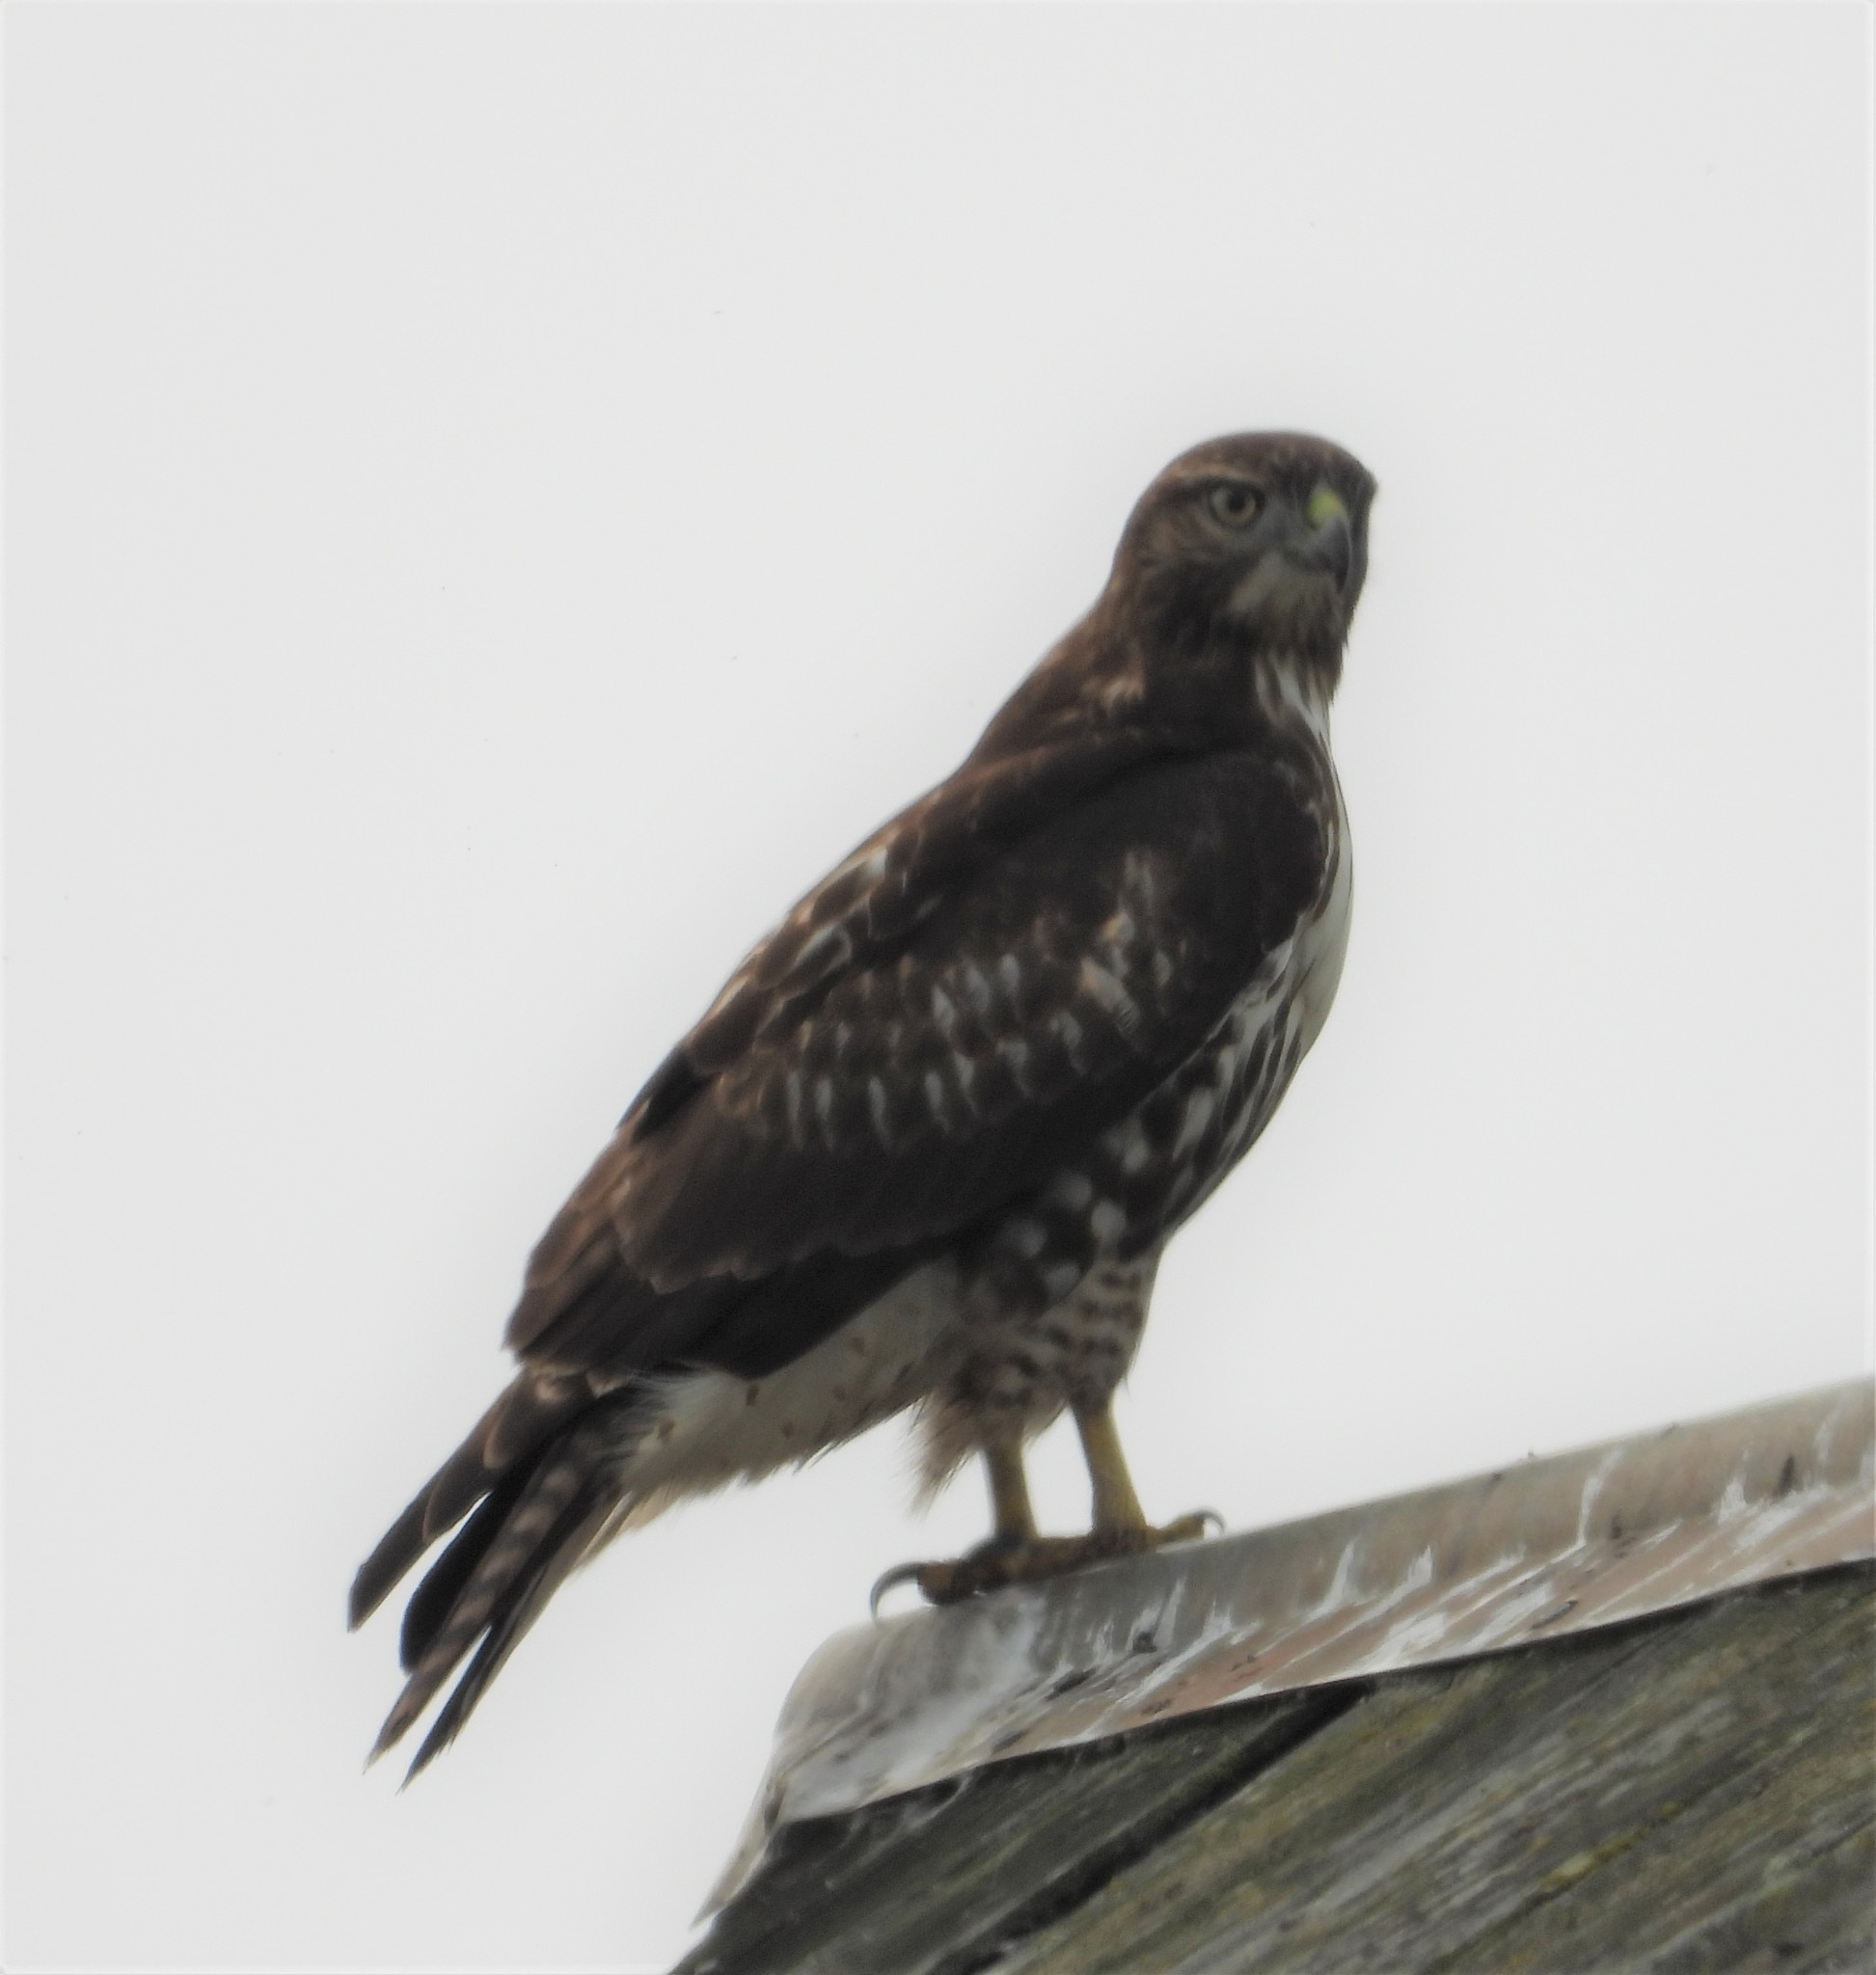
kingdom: Animalia
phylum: Chordata
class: Aves
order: Accipitriformes
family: Accipitridae
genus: Buteo
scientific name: Buteo jamaicensis
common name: Red-tailed hawk
